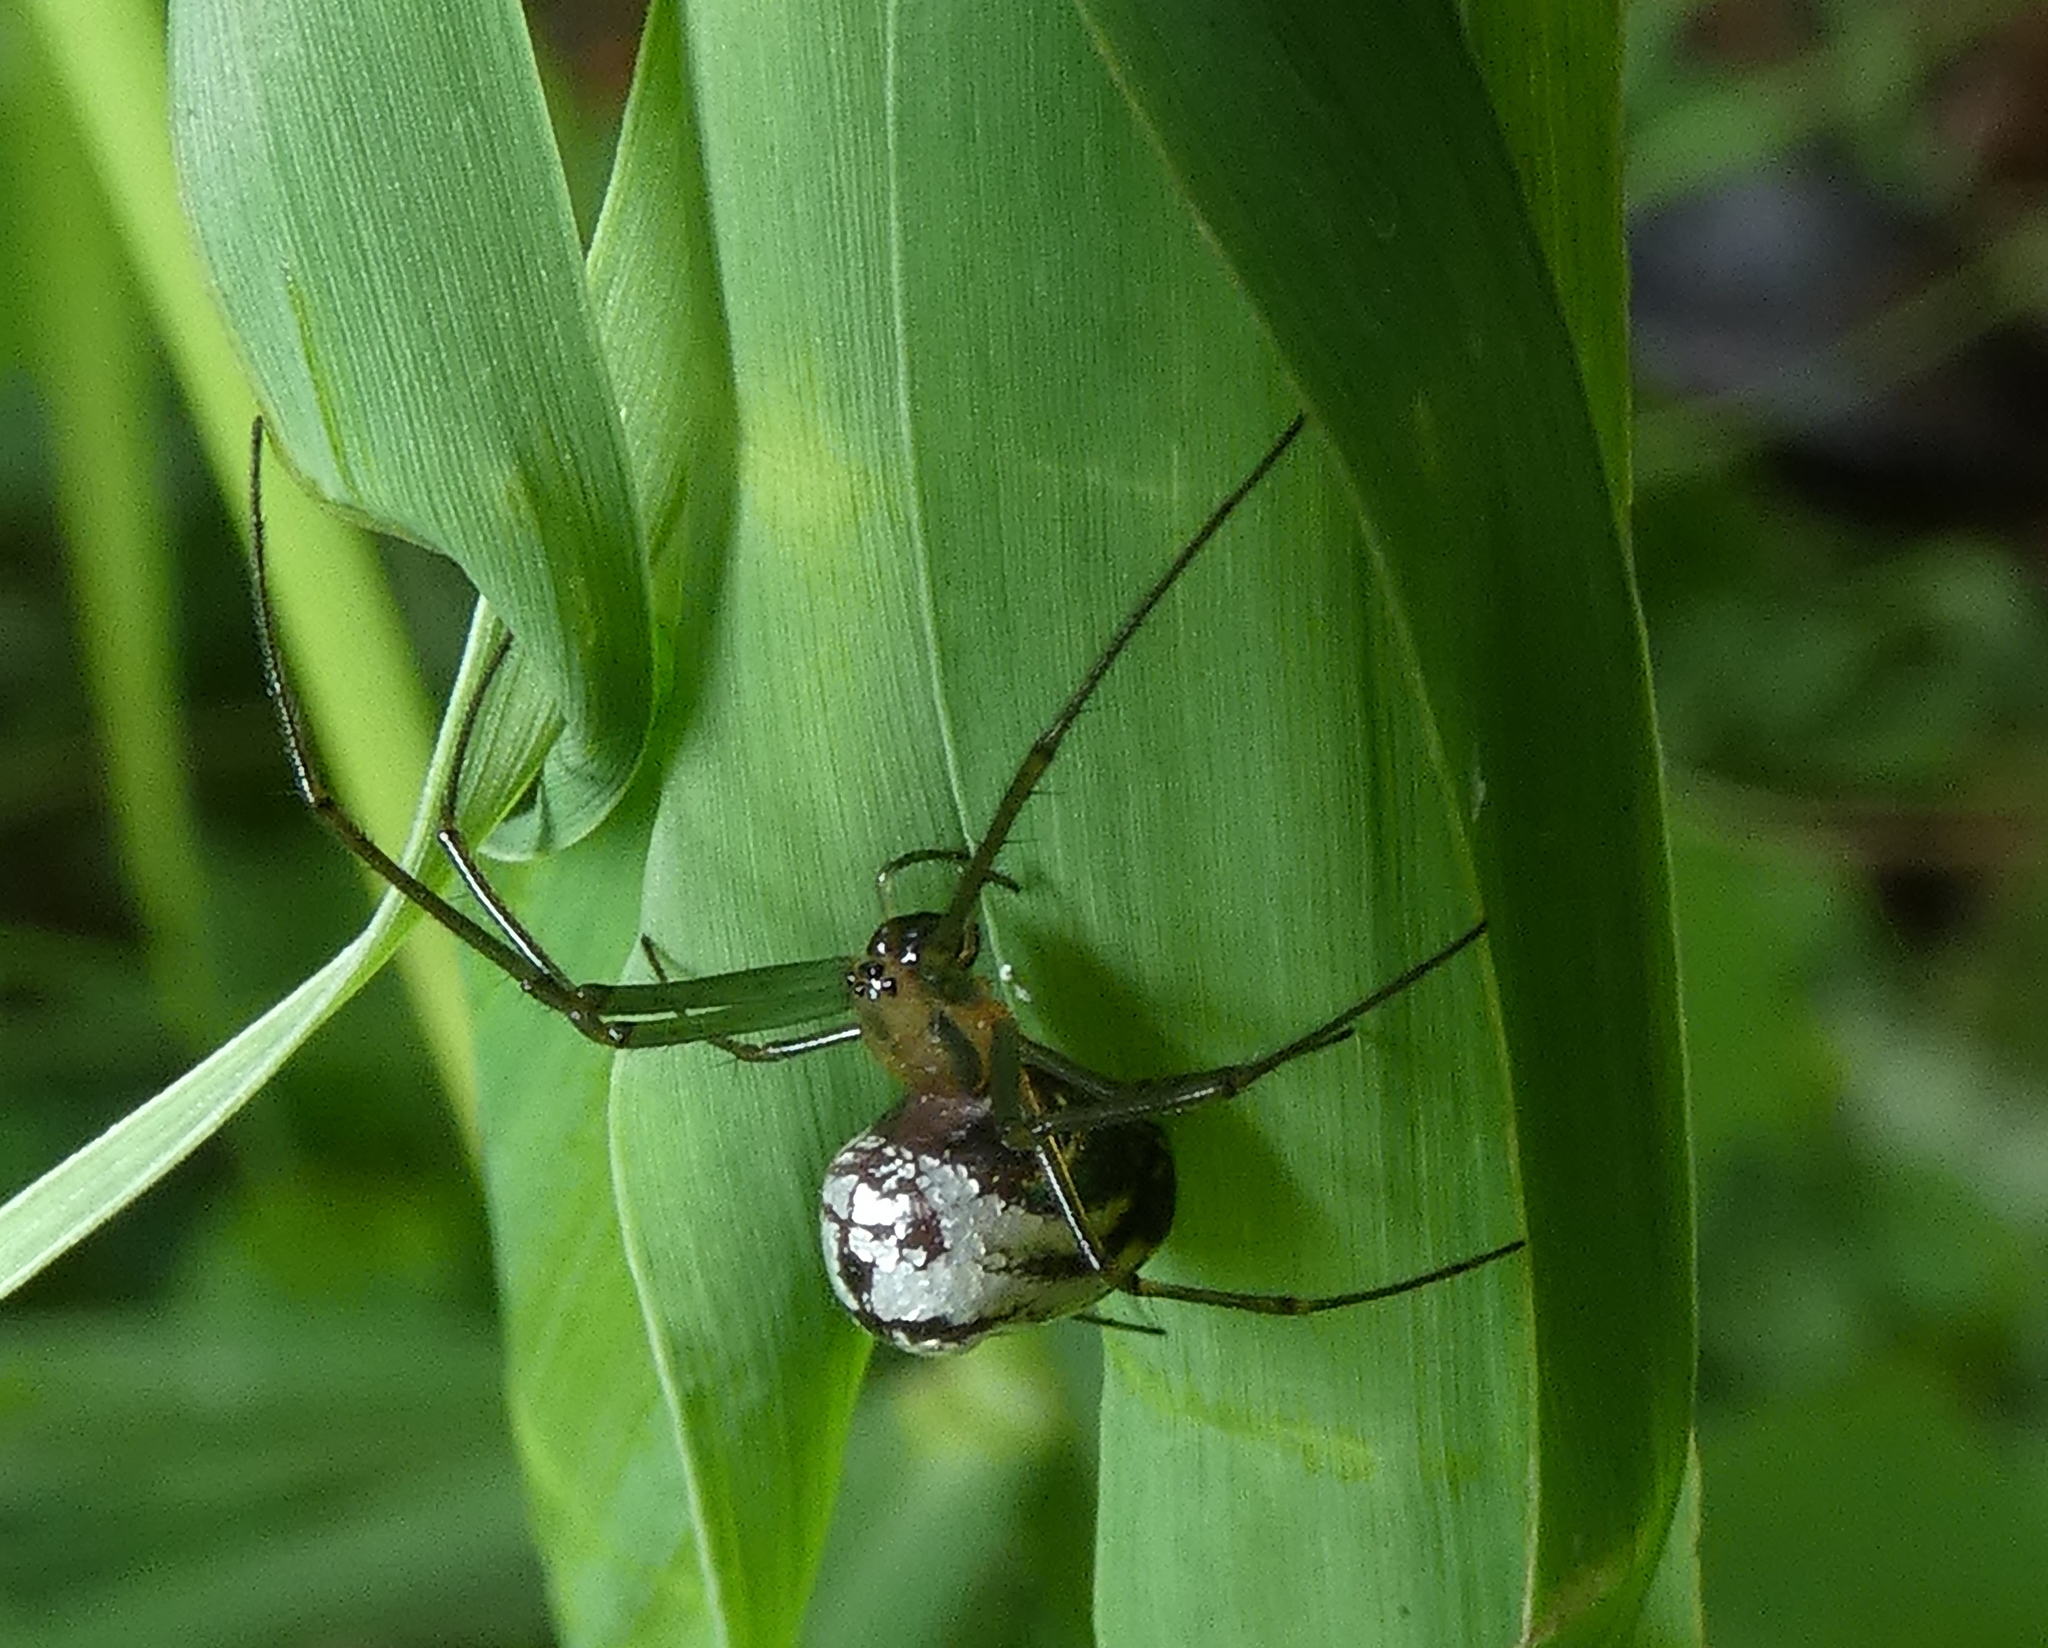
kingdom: Animalia
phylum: Arthropoda
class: Arachnida
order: Araneae
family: Tetragnathidae
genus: Leucauge
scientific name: Leucauge volupis
